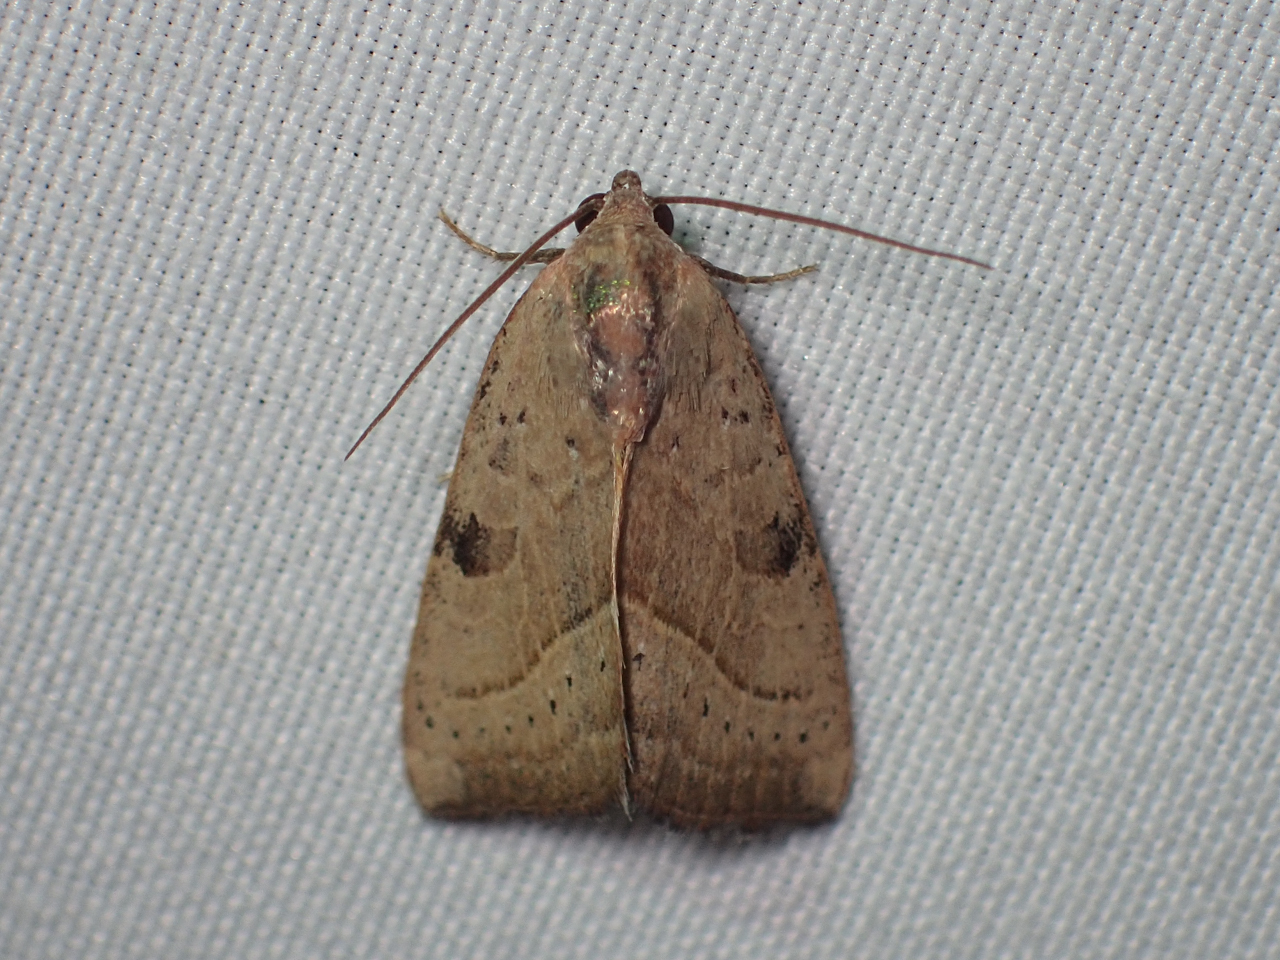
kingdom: Animalia
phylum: Arthropoda
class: Insecta
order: Lepidoptera
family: Noctuidae
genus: Galgula
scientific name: Galgula partita
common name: Wedgeling
